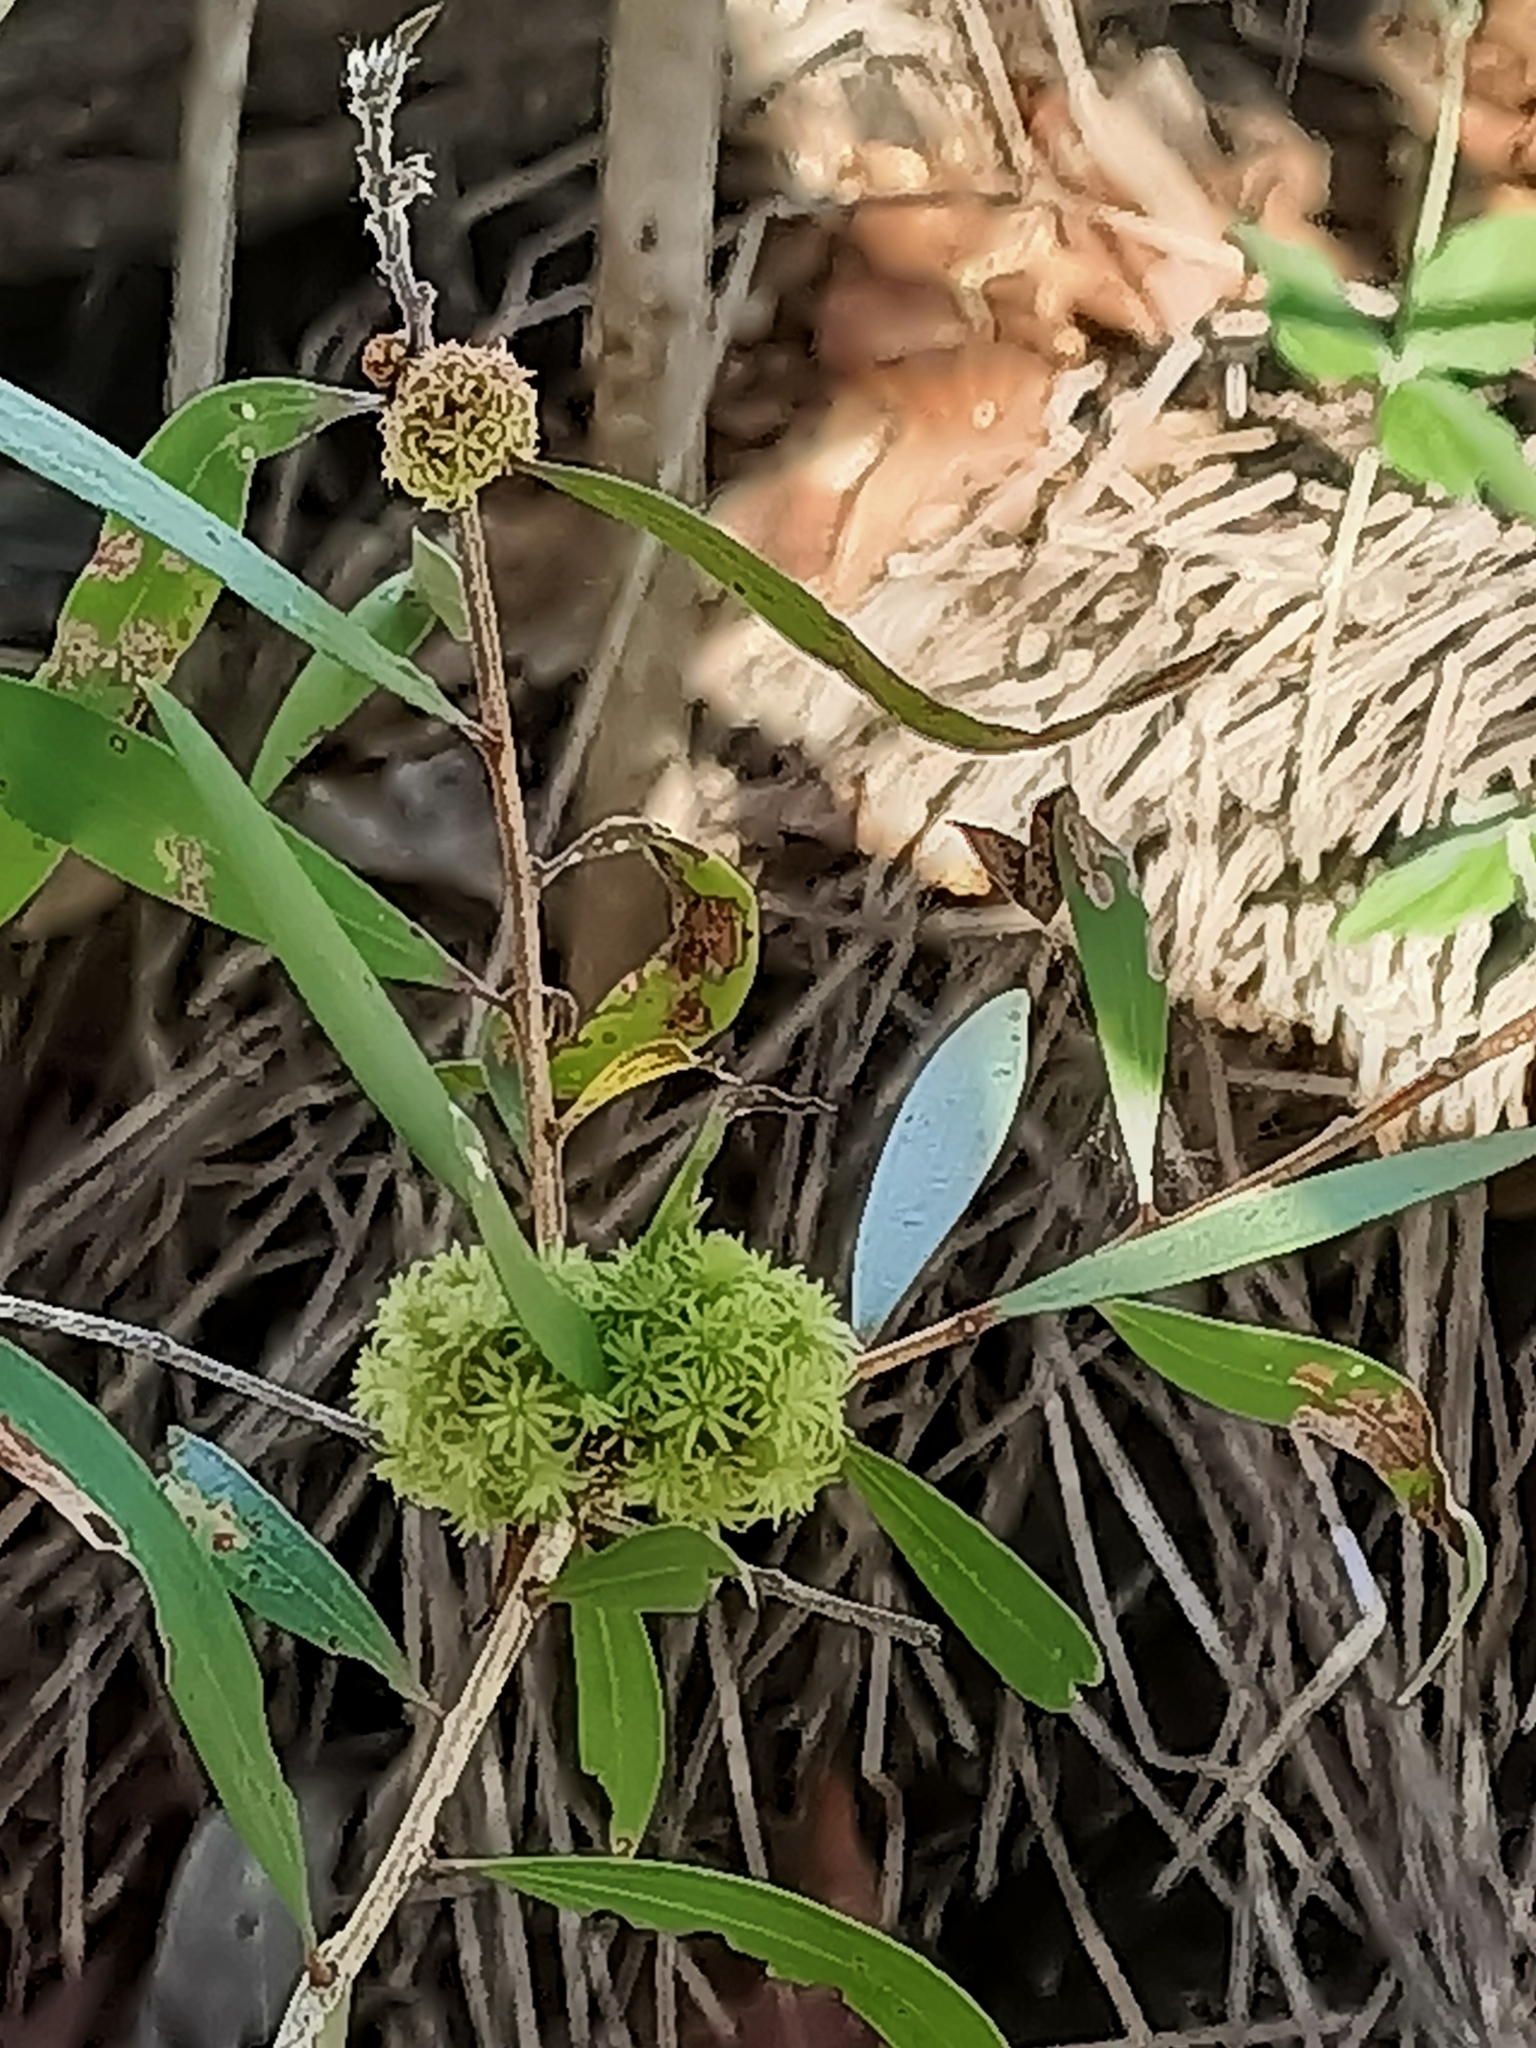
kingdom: Animalia
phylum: Arthropoda
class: Insecta
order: Hemiptera
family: Beesoniidae
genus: Beesonia
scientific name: Beesonia ferrugineus
